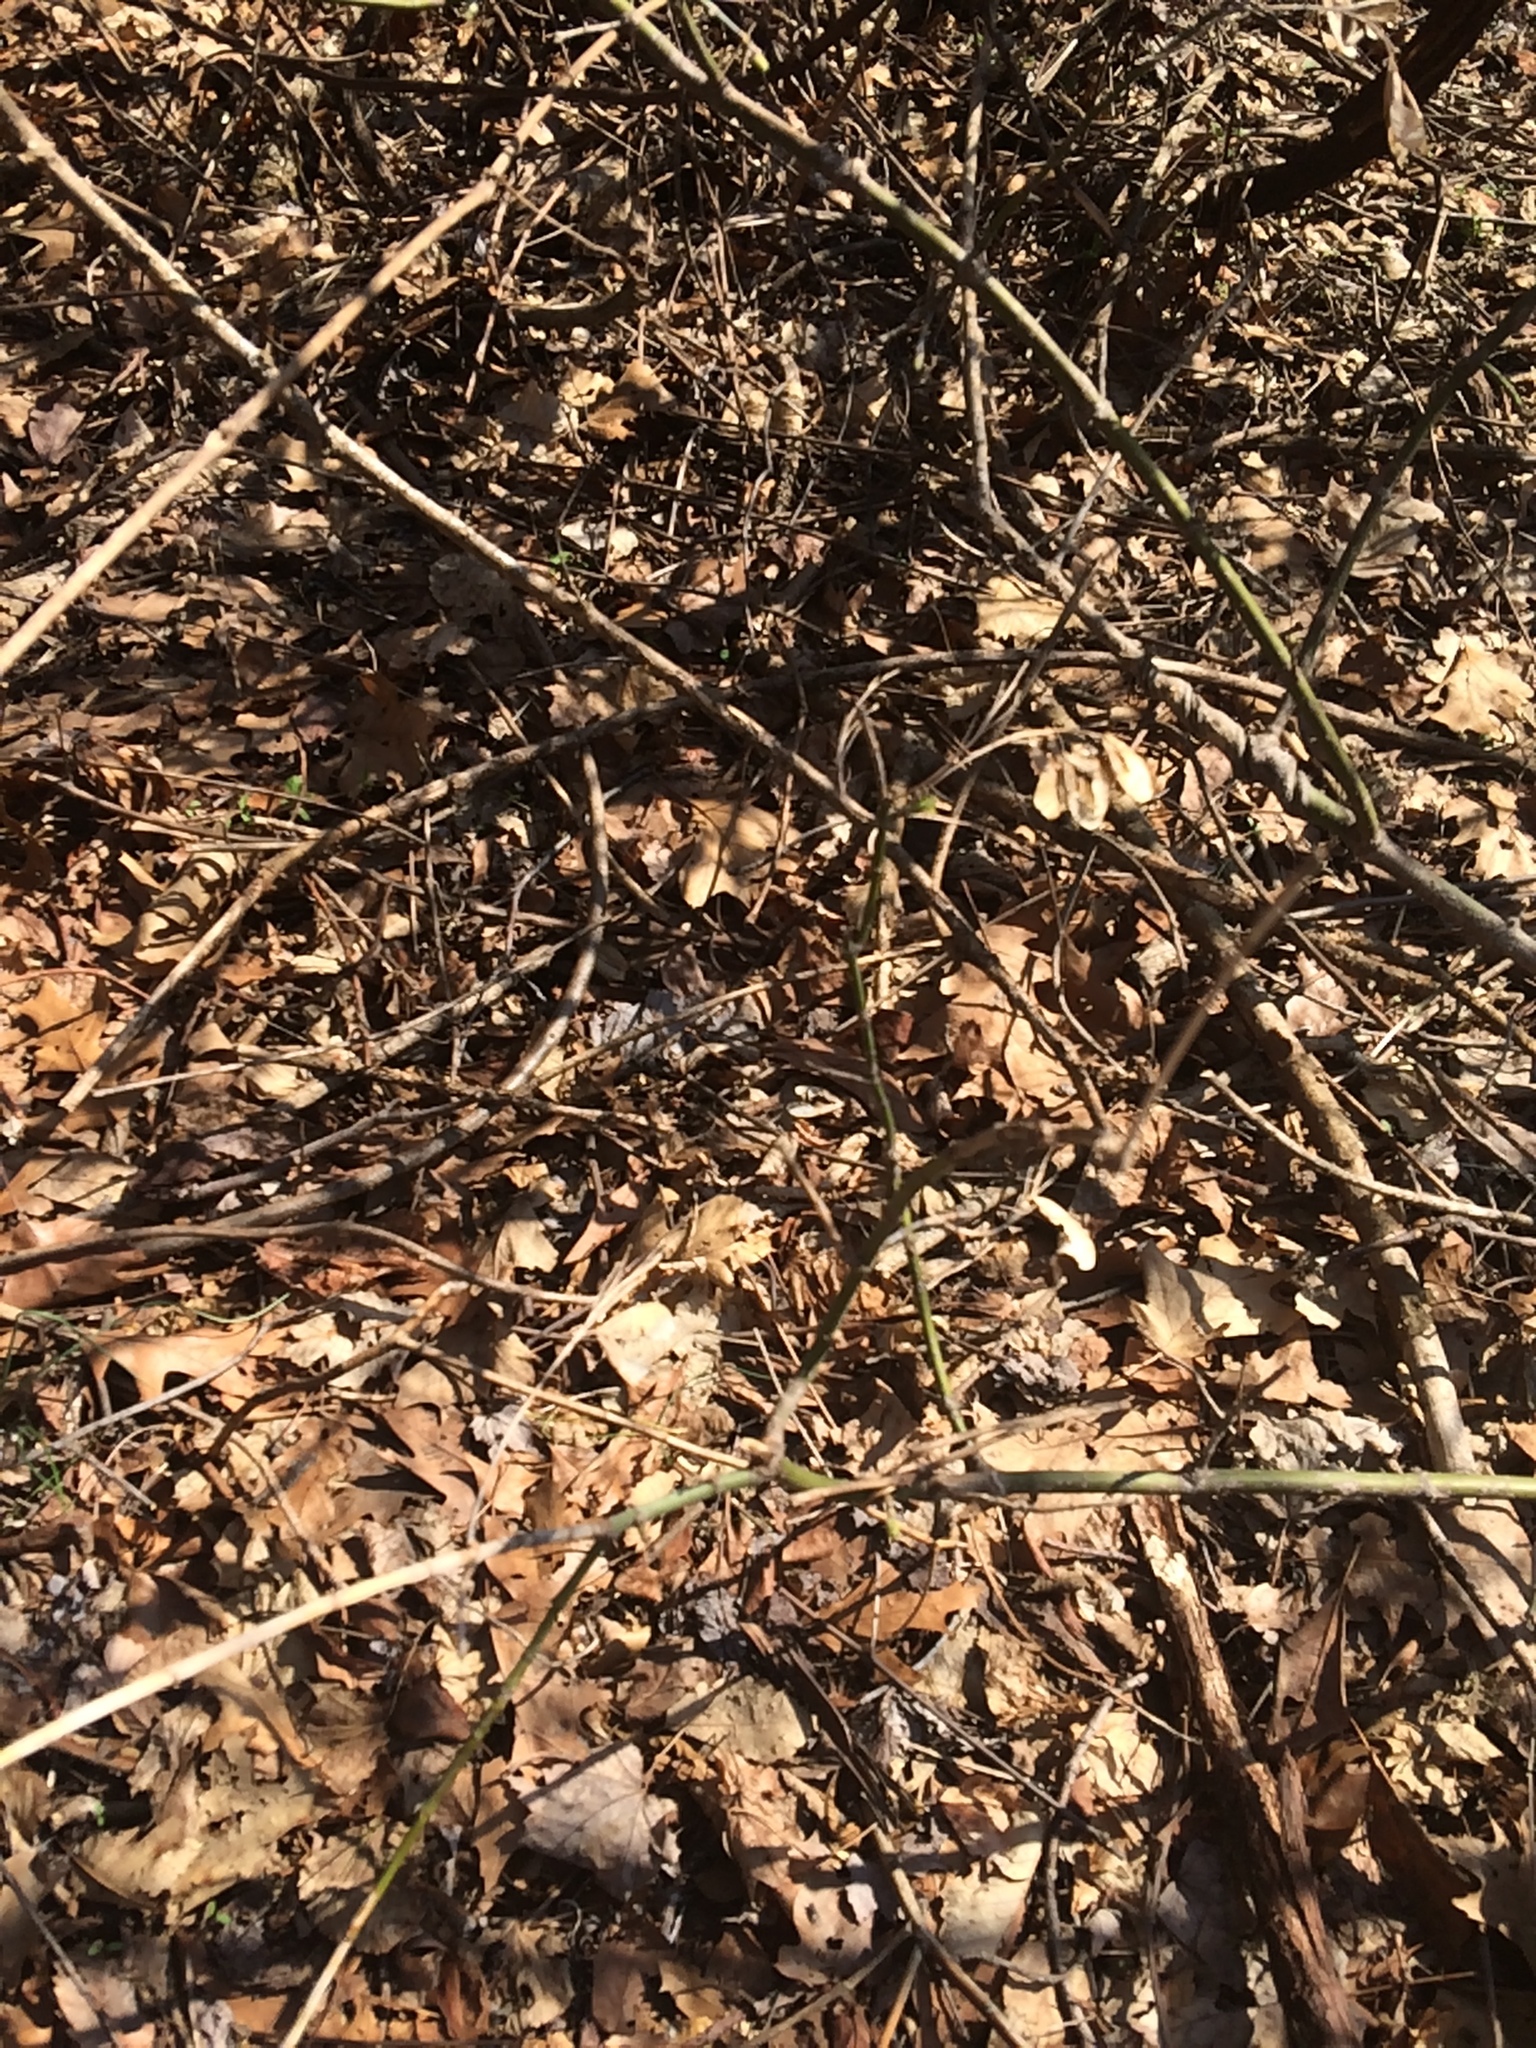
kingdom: Plantae
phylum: Tracheophyta
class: Magnoliopsida
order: Sapindales
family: Sapindaceae
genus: Acer
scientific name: Acer negundo
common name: Ashleaf maple
